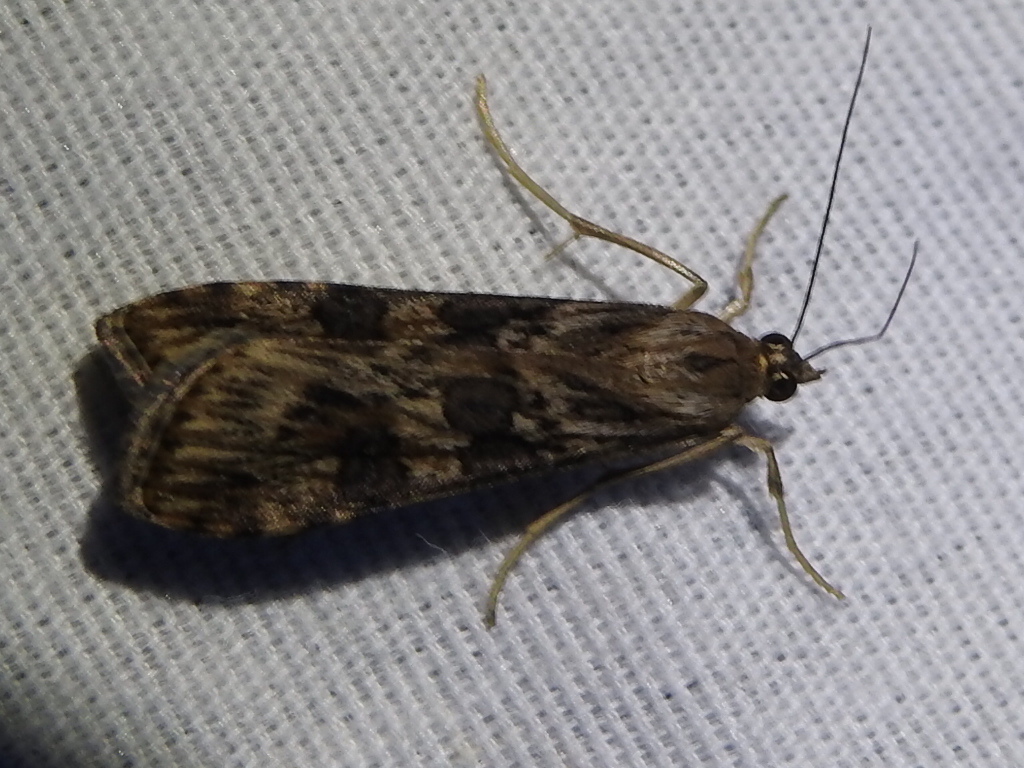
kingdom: Animalia
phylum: Arthropoda
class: Insecta
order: Lepidoptera
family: Crambidae
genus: Nomophila
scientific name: Nomophila nearctica
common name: American rush veneer
